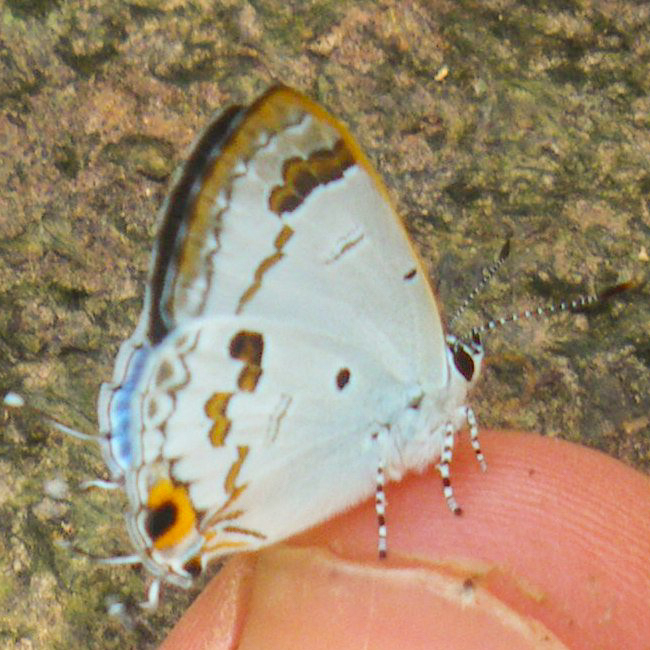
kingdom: Animalia
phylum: Arthropoda
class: Insecta
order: Lepidoptera
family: Lycaenidae
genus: Chliaria
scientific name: Chliaria othona
